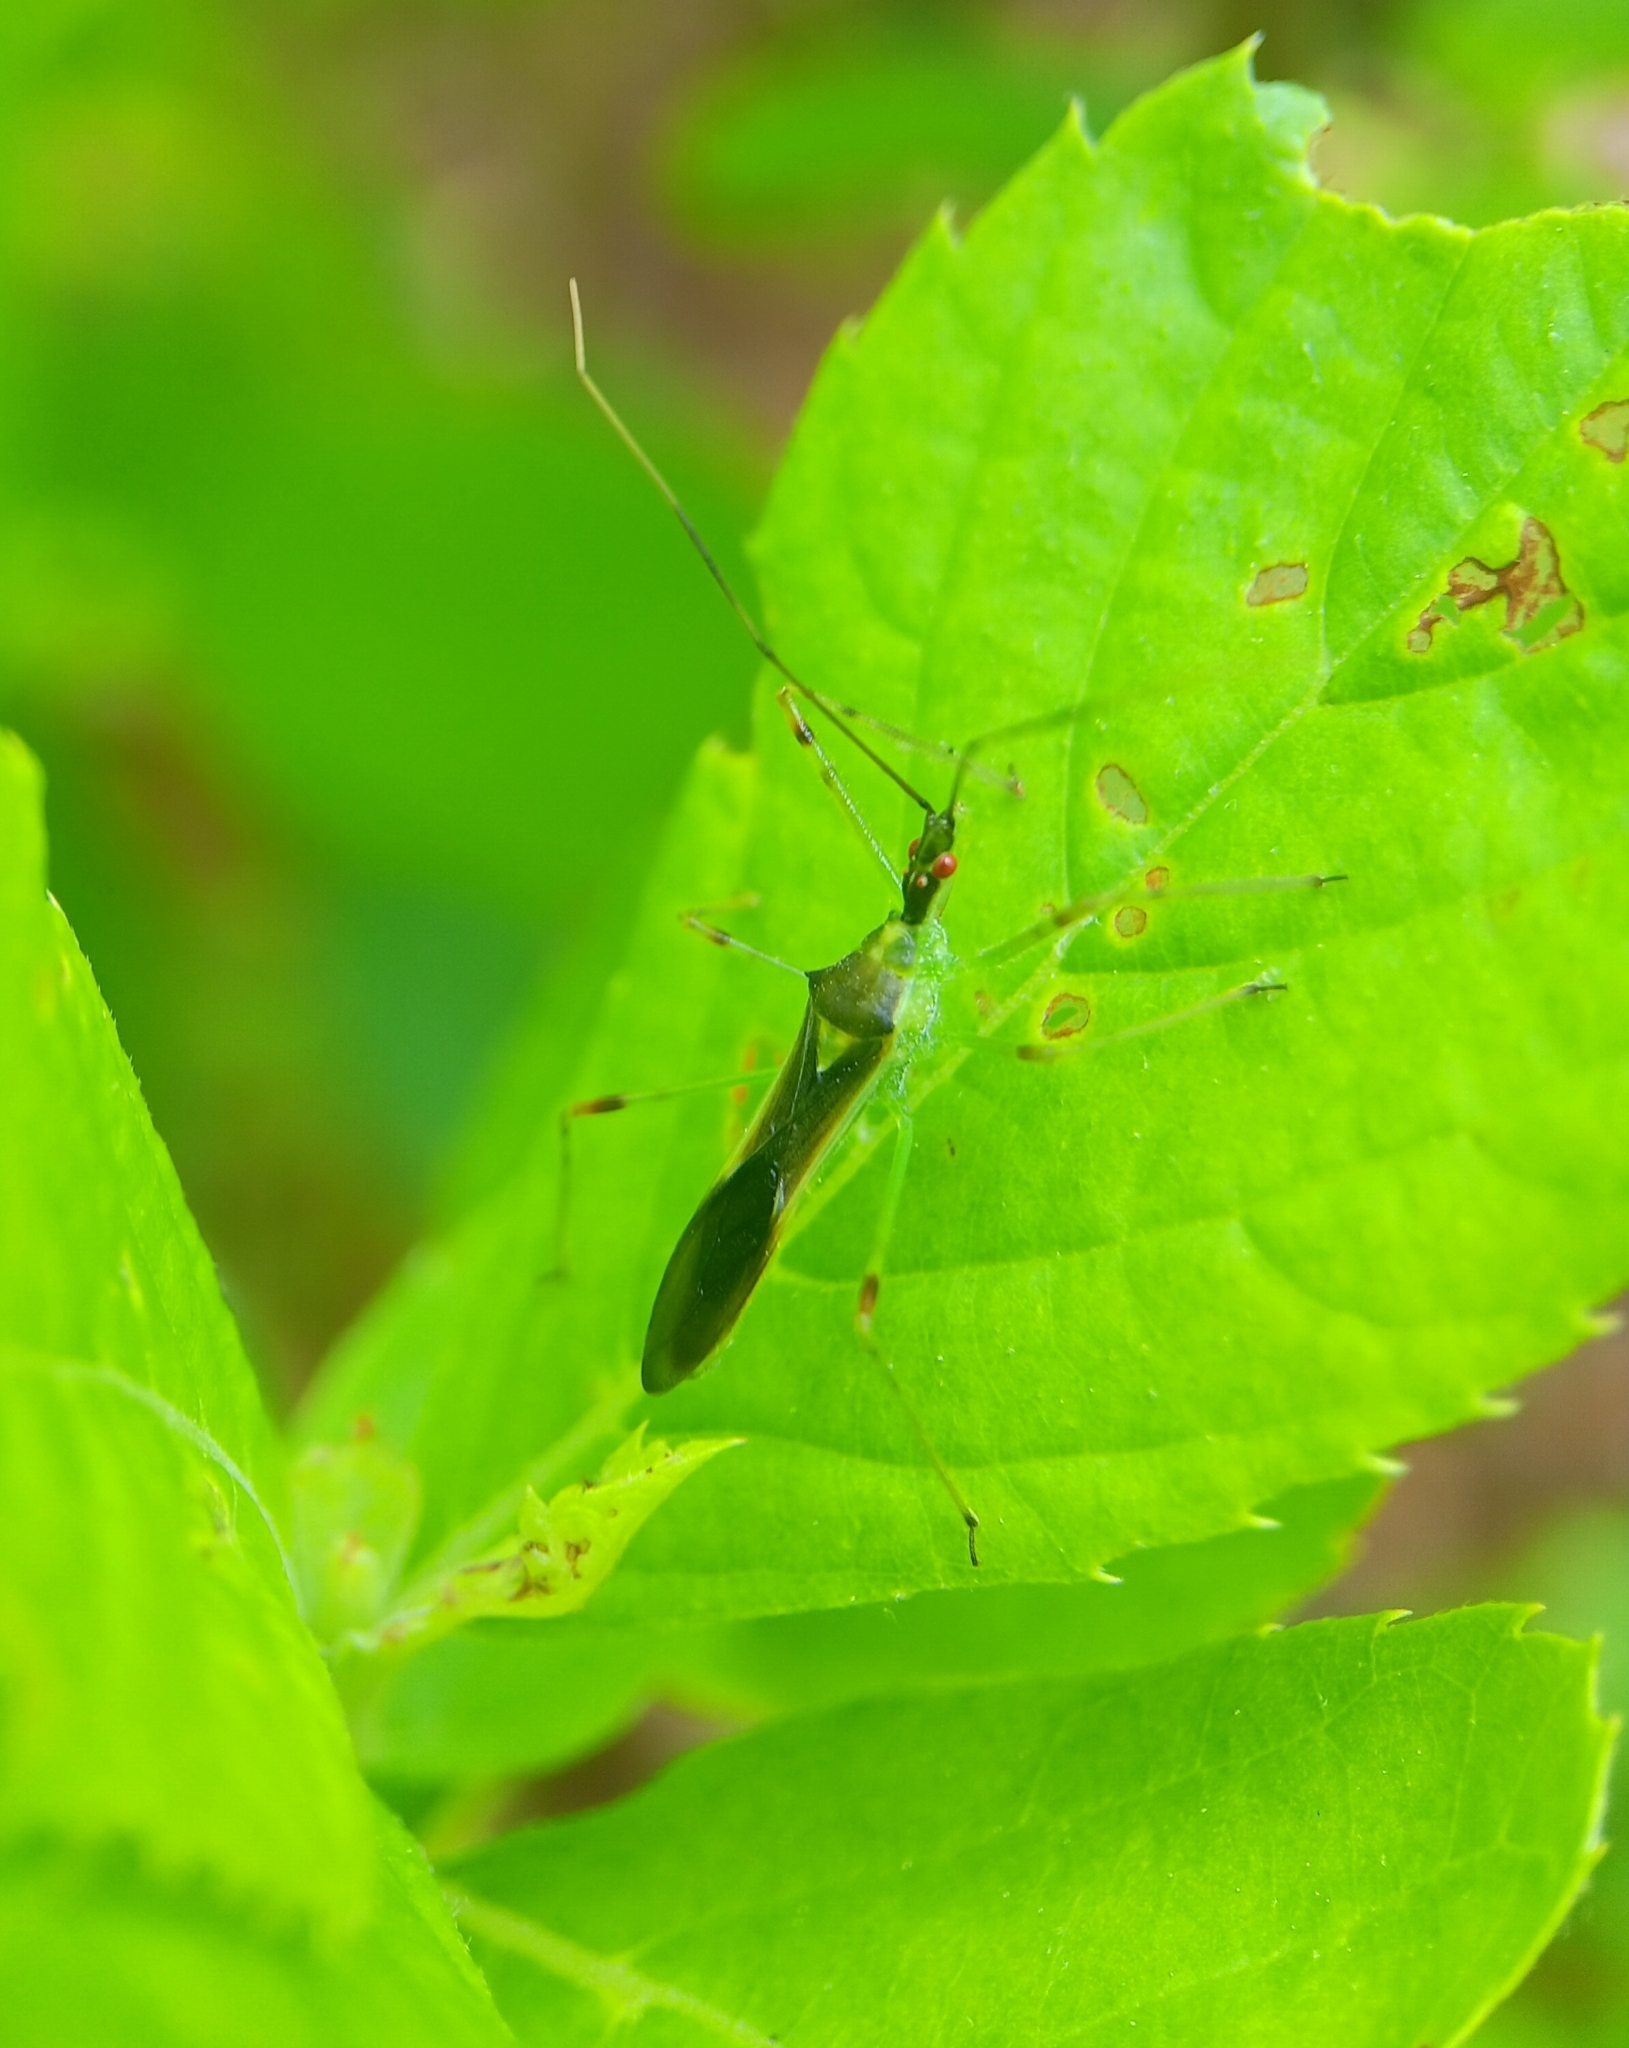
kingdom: Animalia
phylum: Arthropoda
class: Insecta
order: Hemiptera
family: Reduviidae
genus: Zelus
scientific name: Zelus luridus
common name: Pale green assassin bug
